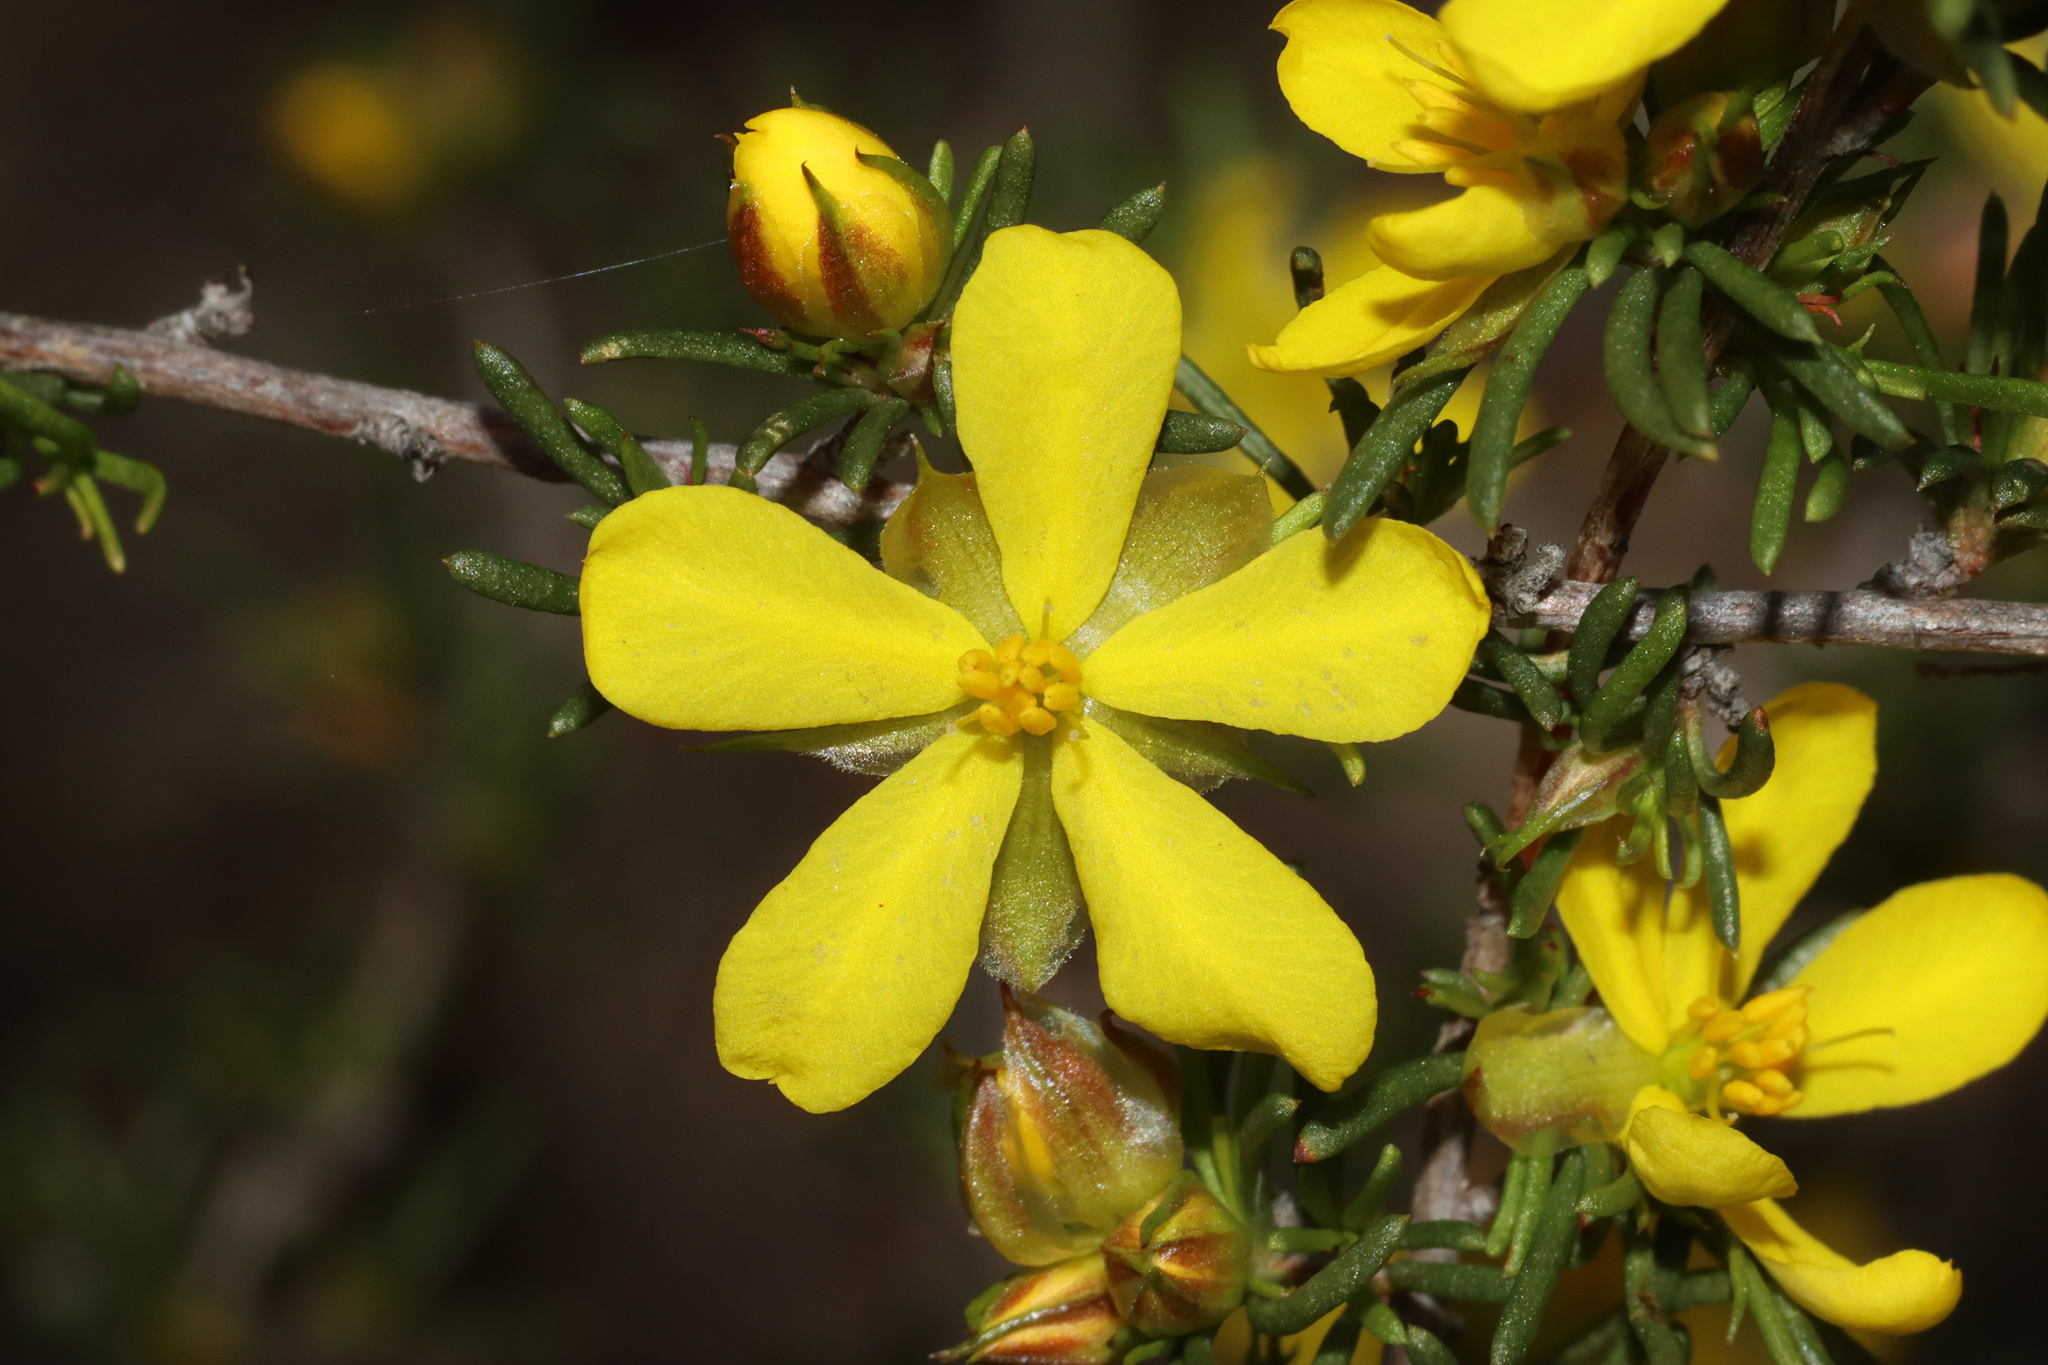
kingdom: Plantae
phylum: Tracheophyta
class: Magnoliopsida
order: Dilleniales
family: Dilleniaceae
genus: Hibbertia
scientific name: Hibbertia
